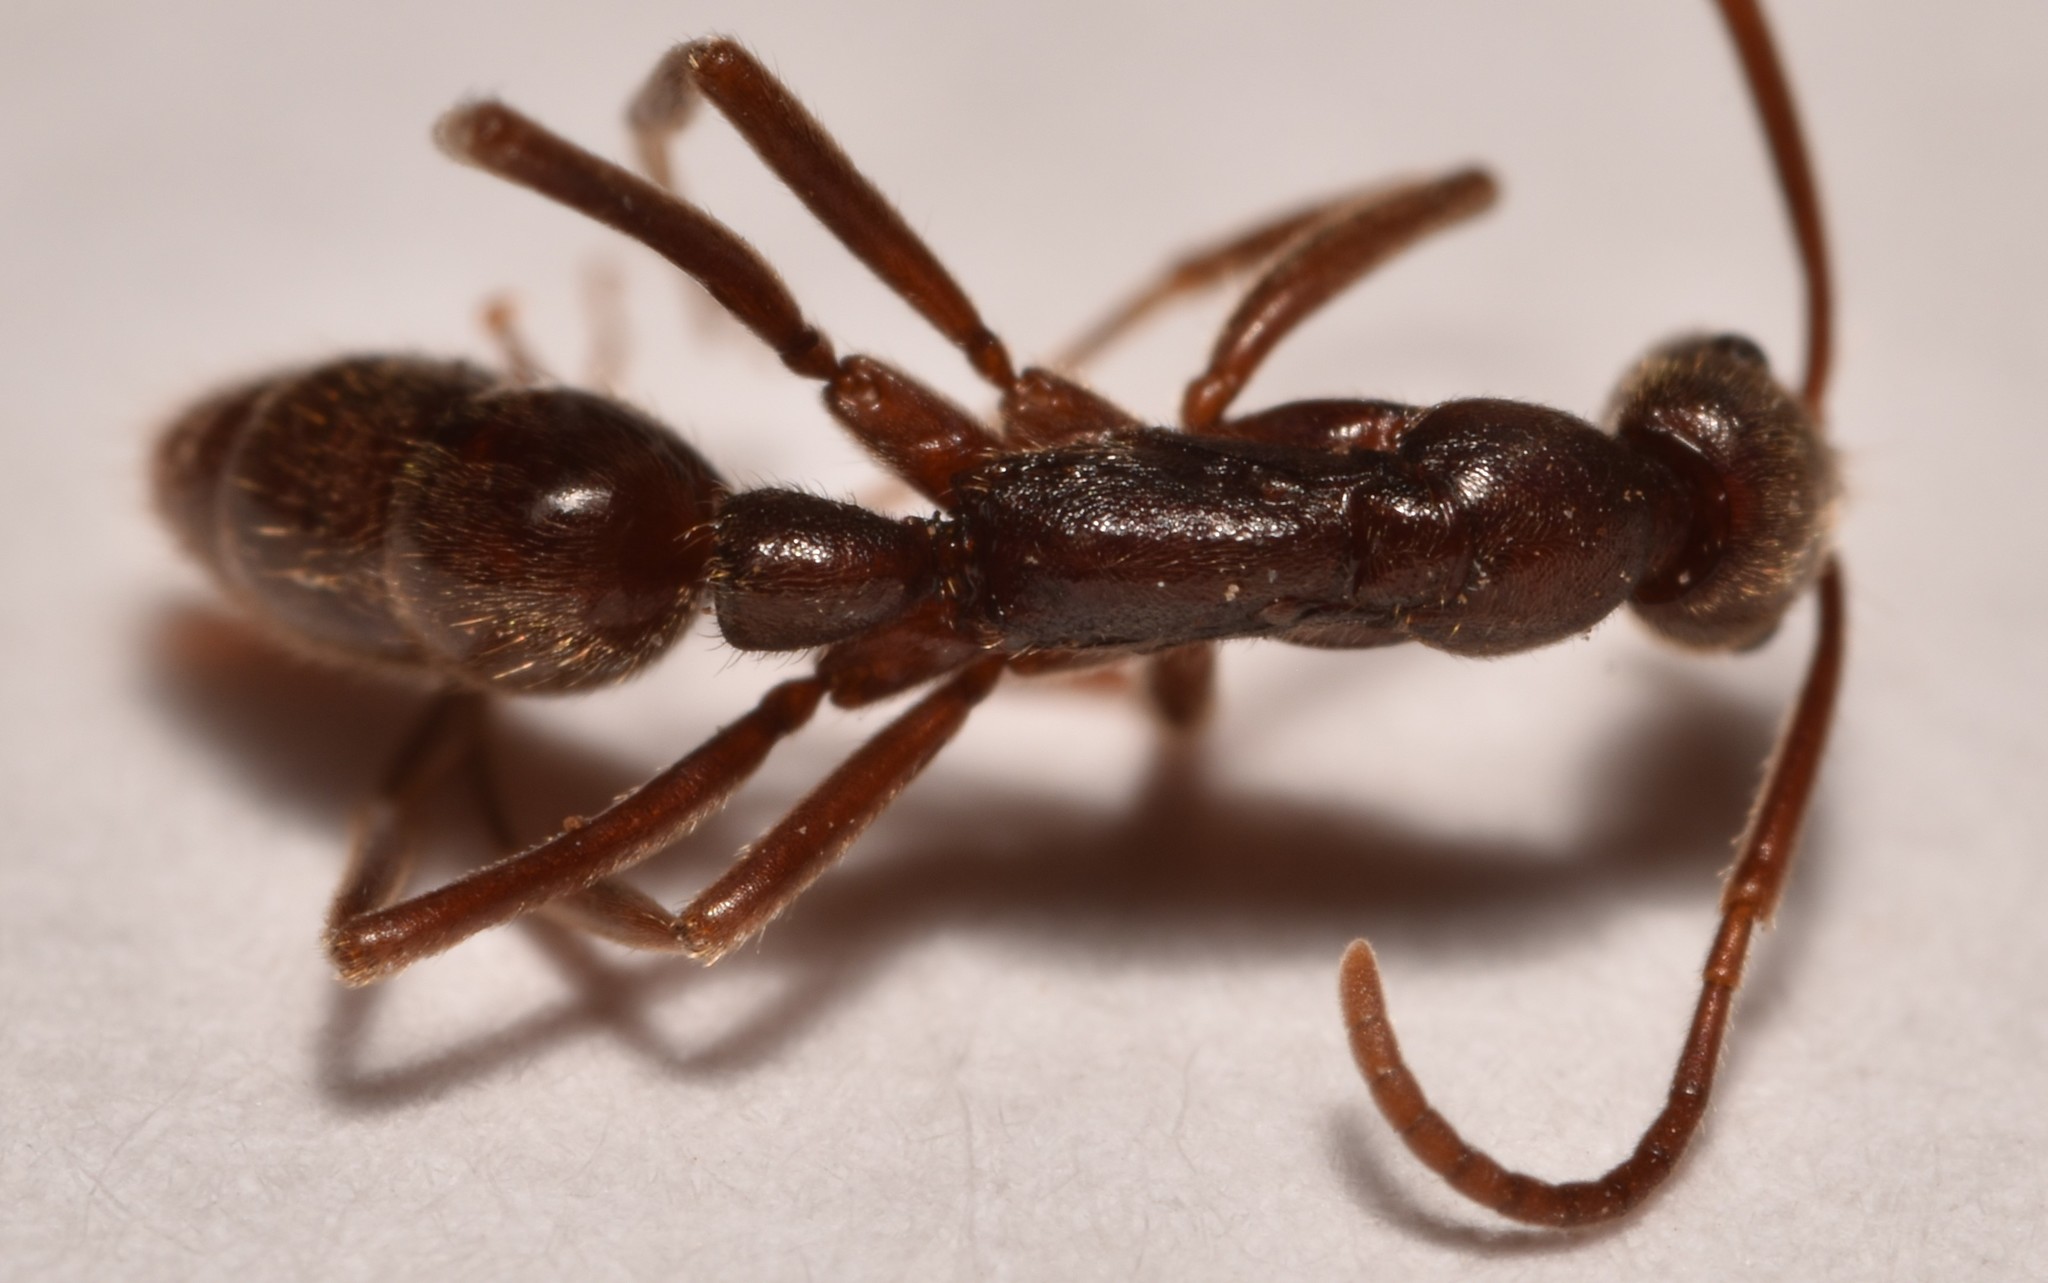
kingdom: Animalia
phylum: Arthropoda
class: Insecta
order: Hymenoptera
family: Formicidae
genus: Leptogenys
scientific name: Leptogenys elongata
